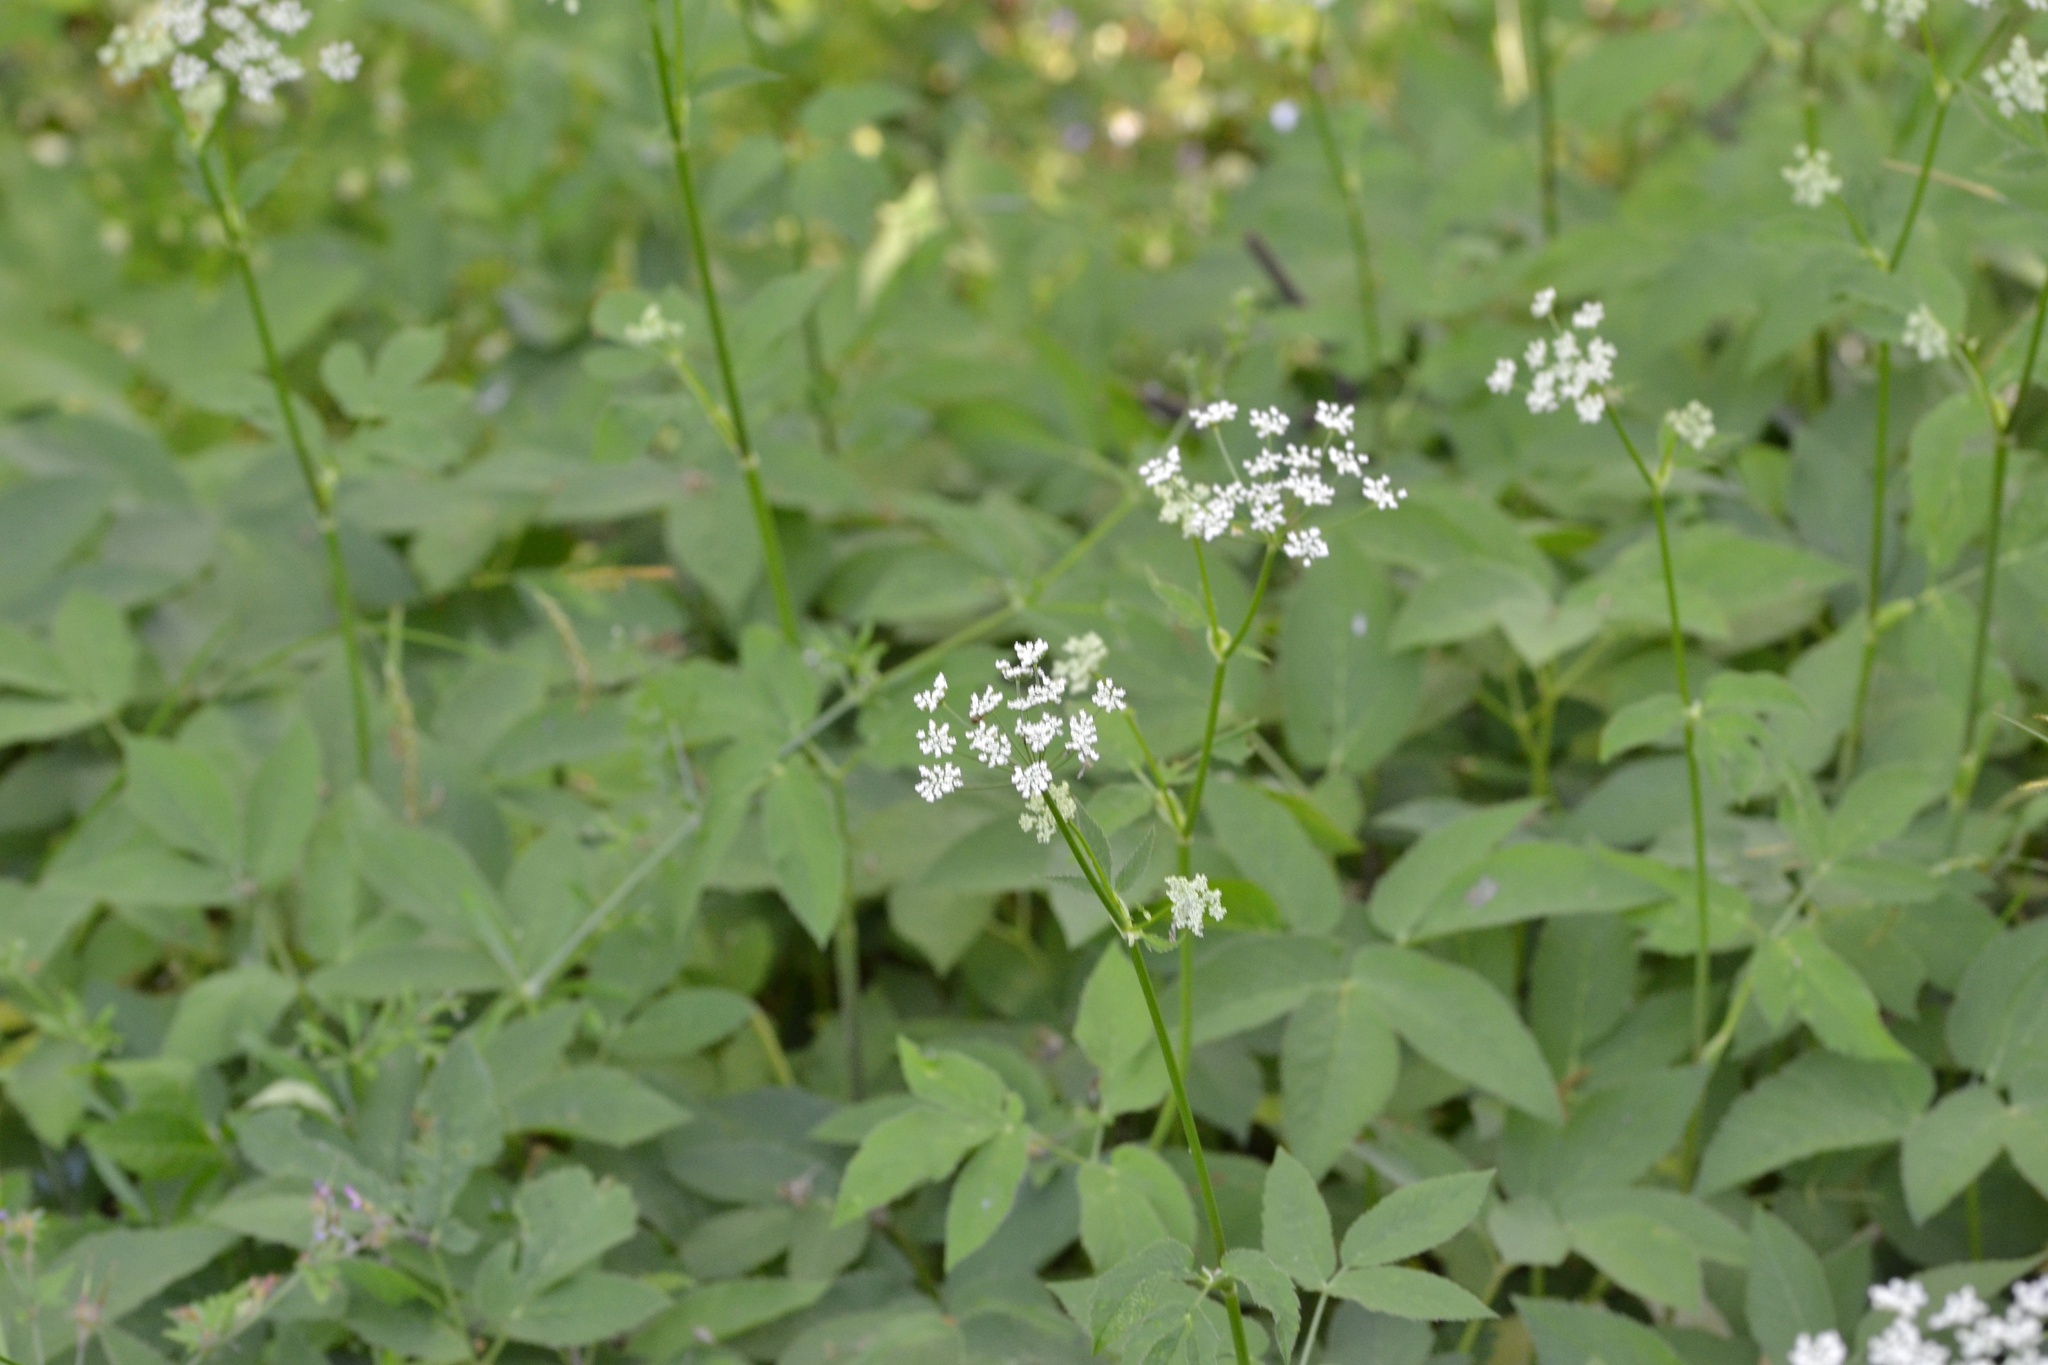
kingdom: Plantae
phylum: Tracheophyta
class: Magnoliopsida
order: Apiales
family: Apiaceae
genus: Aegopodium
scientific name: Aegopodium podagraria
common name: Ground-elder
